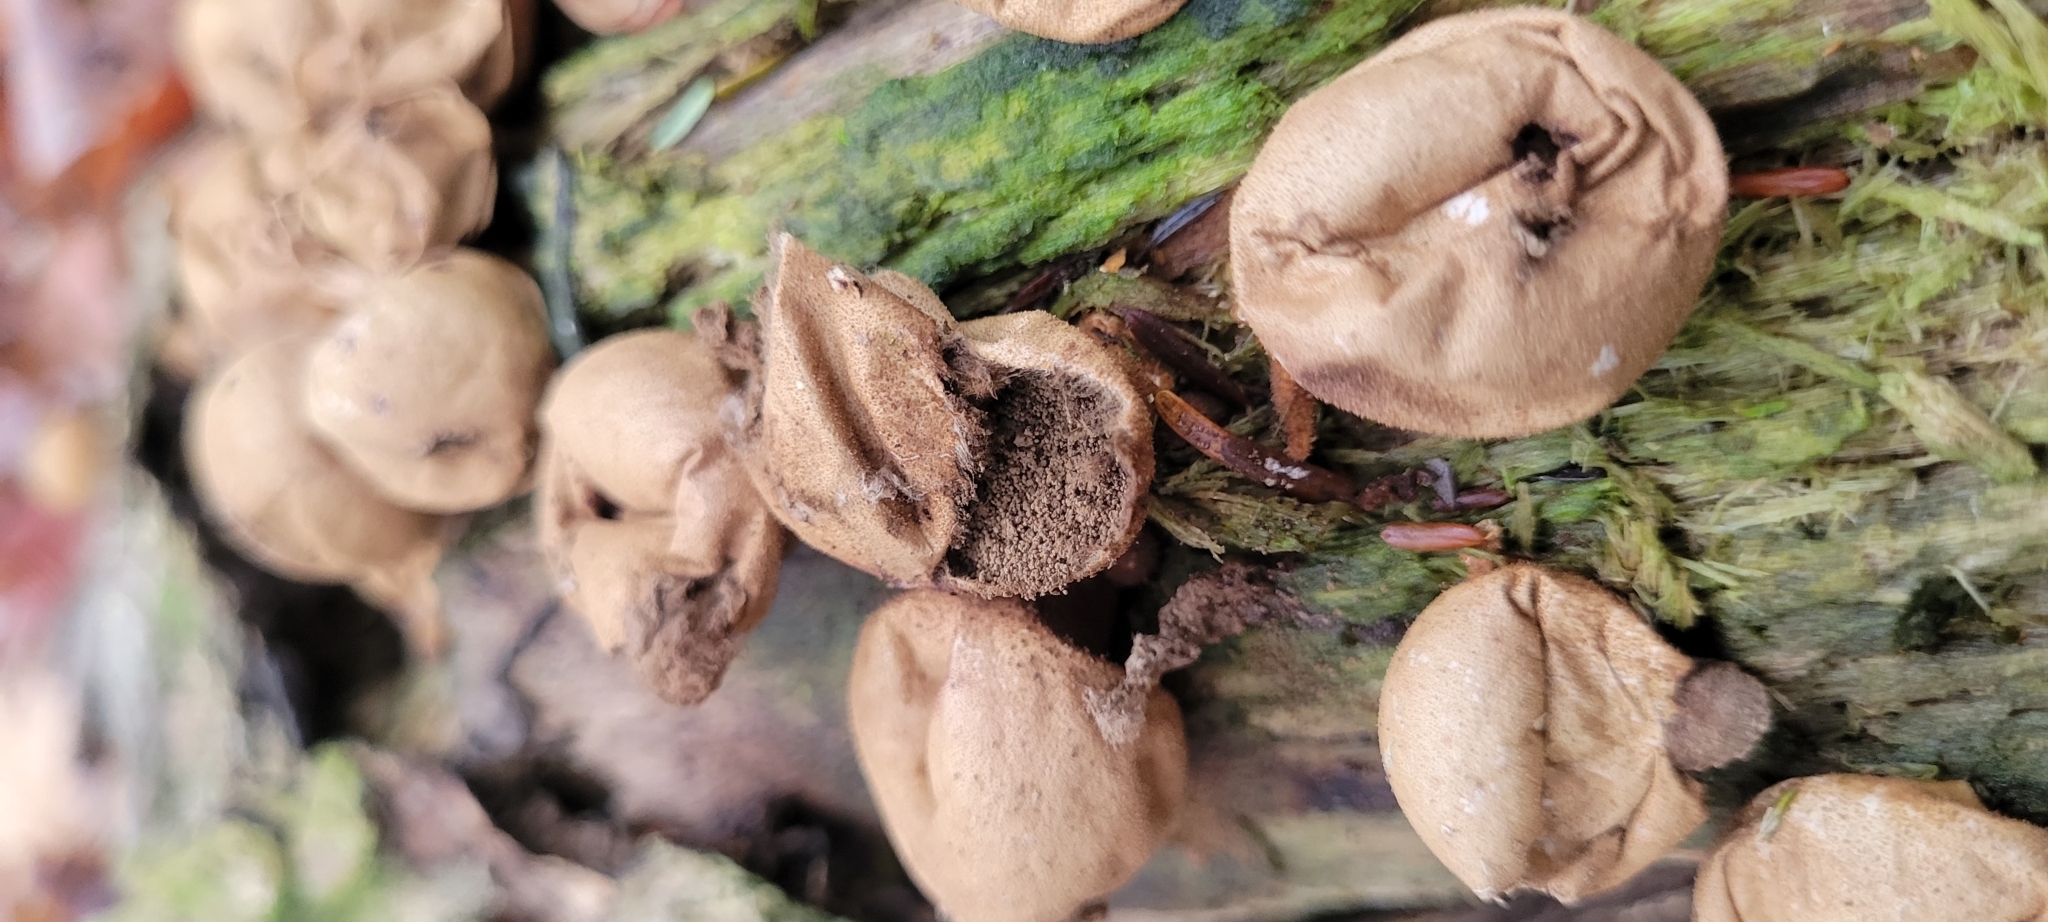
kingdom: Fungi
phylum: Basidiomycota
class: Agaricomycetes
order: Agaricales
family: Lycoperdaceae
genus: Apioperdon
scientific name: Apioperdon pyriforme
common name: Pear-shaped puffball
